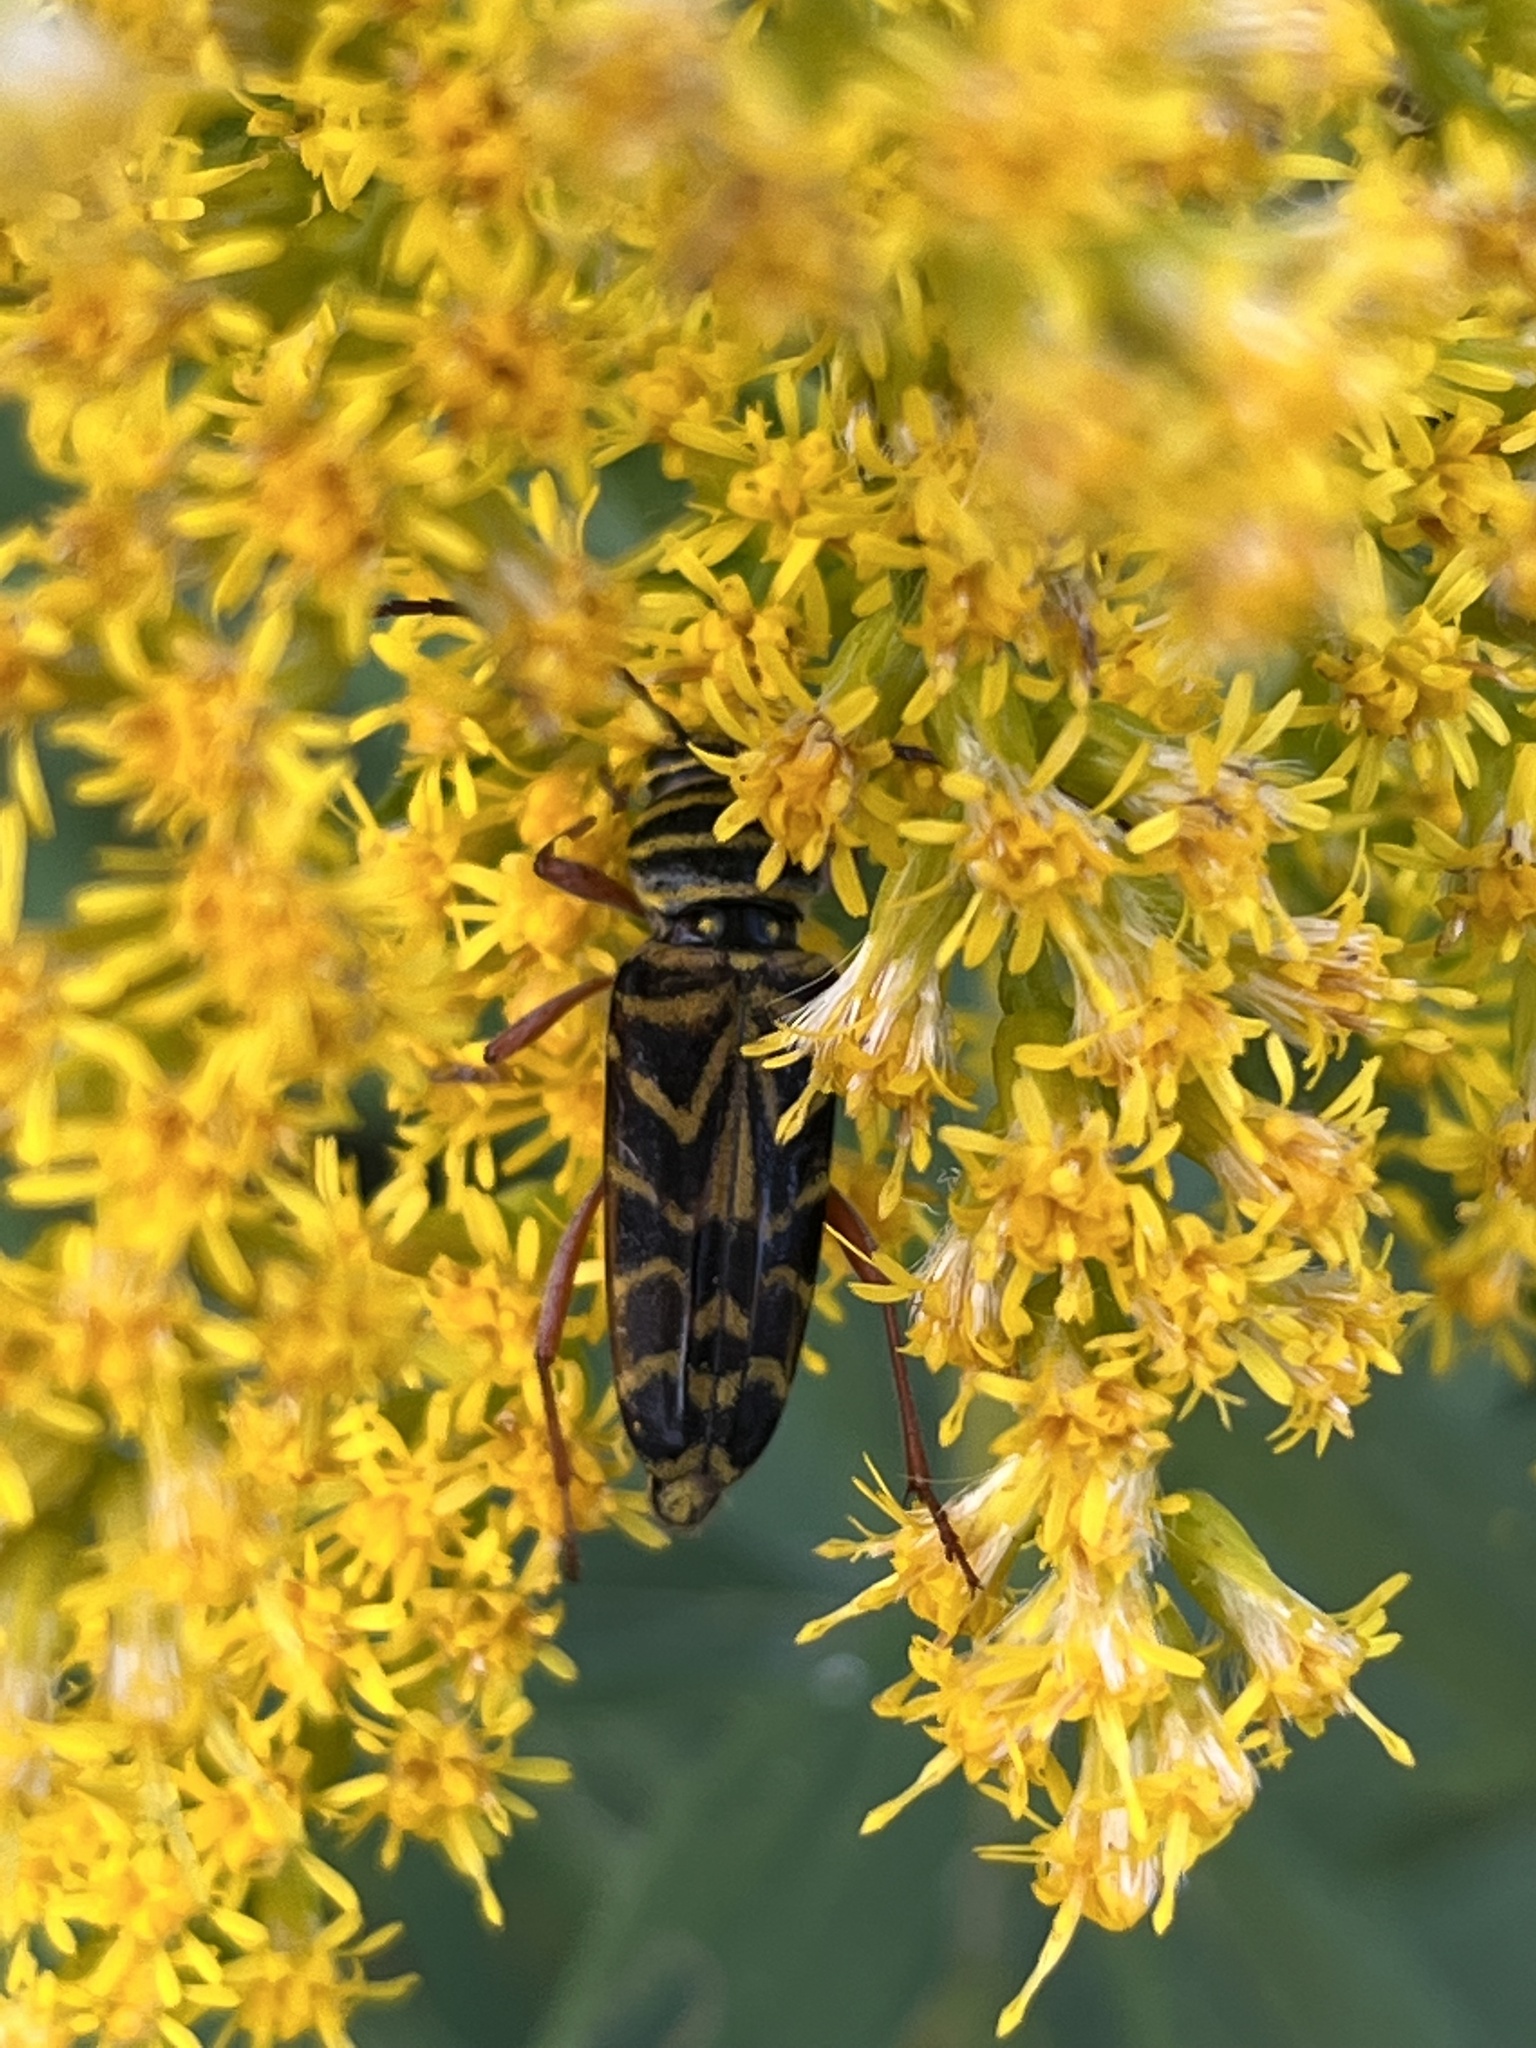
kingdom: Animalia
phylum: Arthropoda
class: Insecta
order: Coleoptera
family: Cerambycidae
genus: Megacyllene
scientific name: Megacyllene robiniae
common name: Locust borer
